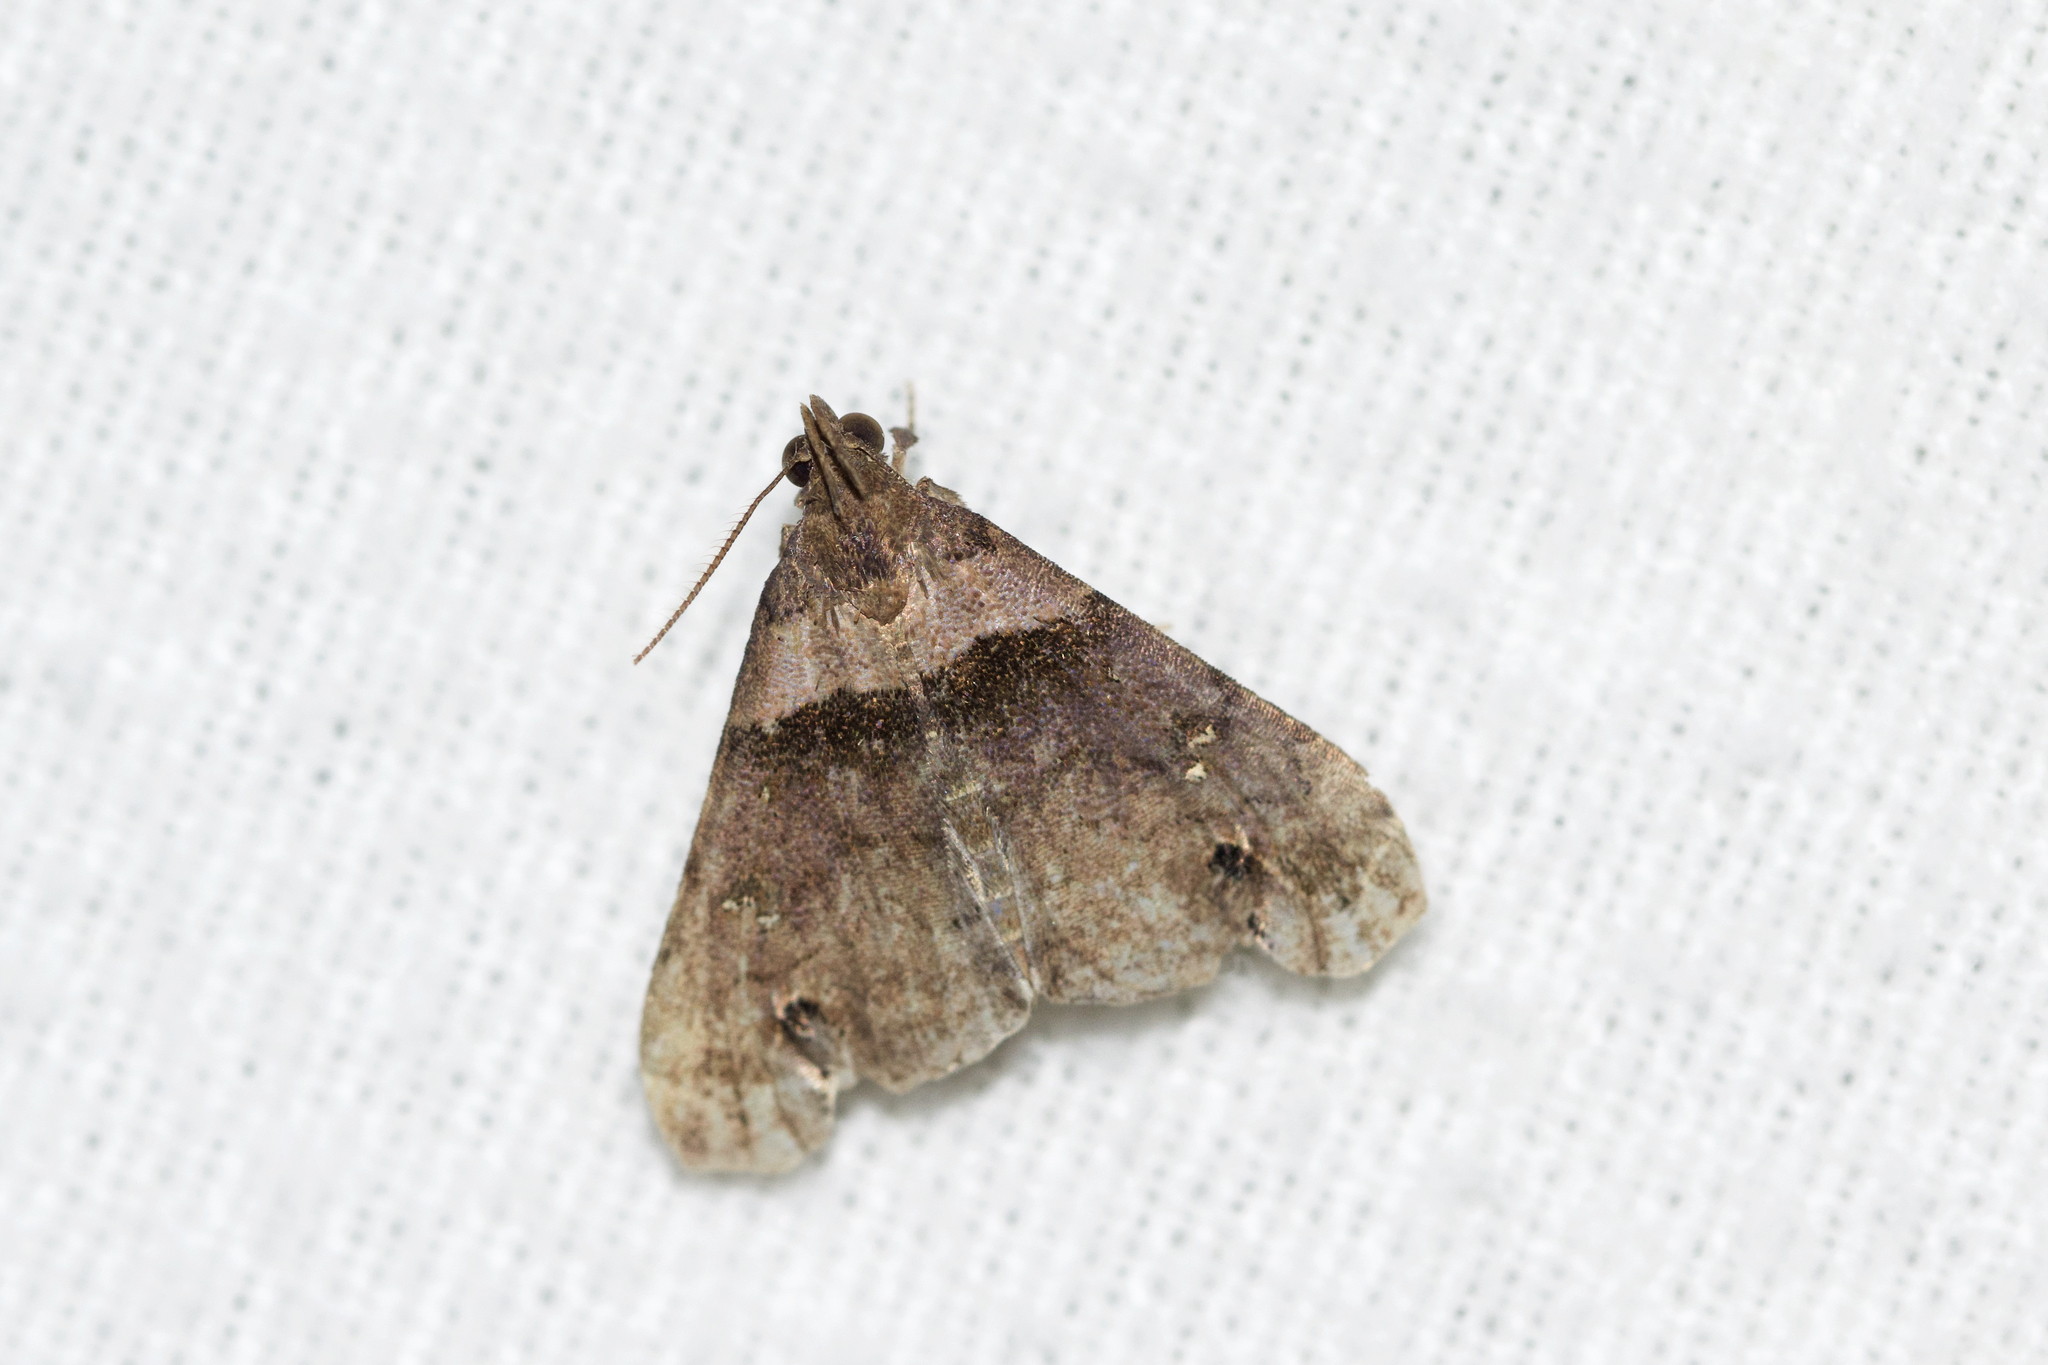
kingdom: Animalia
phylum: Arthropoda
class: Insecta
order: Lepidoptera
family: Erebidae
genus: Lascoria
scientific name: Lascoria ambigualis
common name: Ambiguous moth
